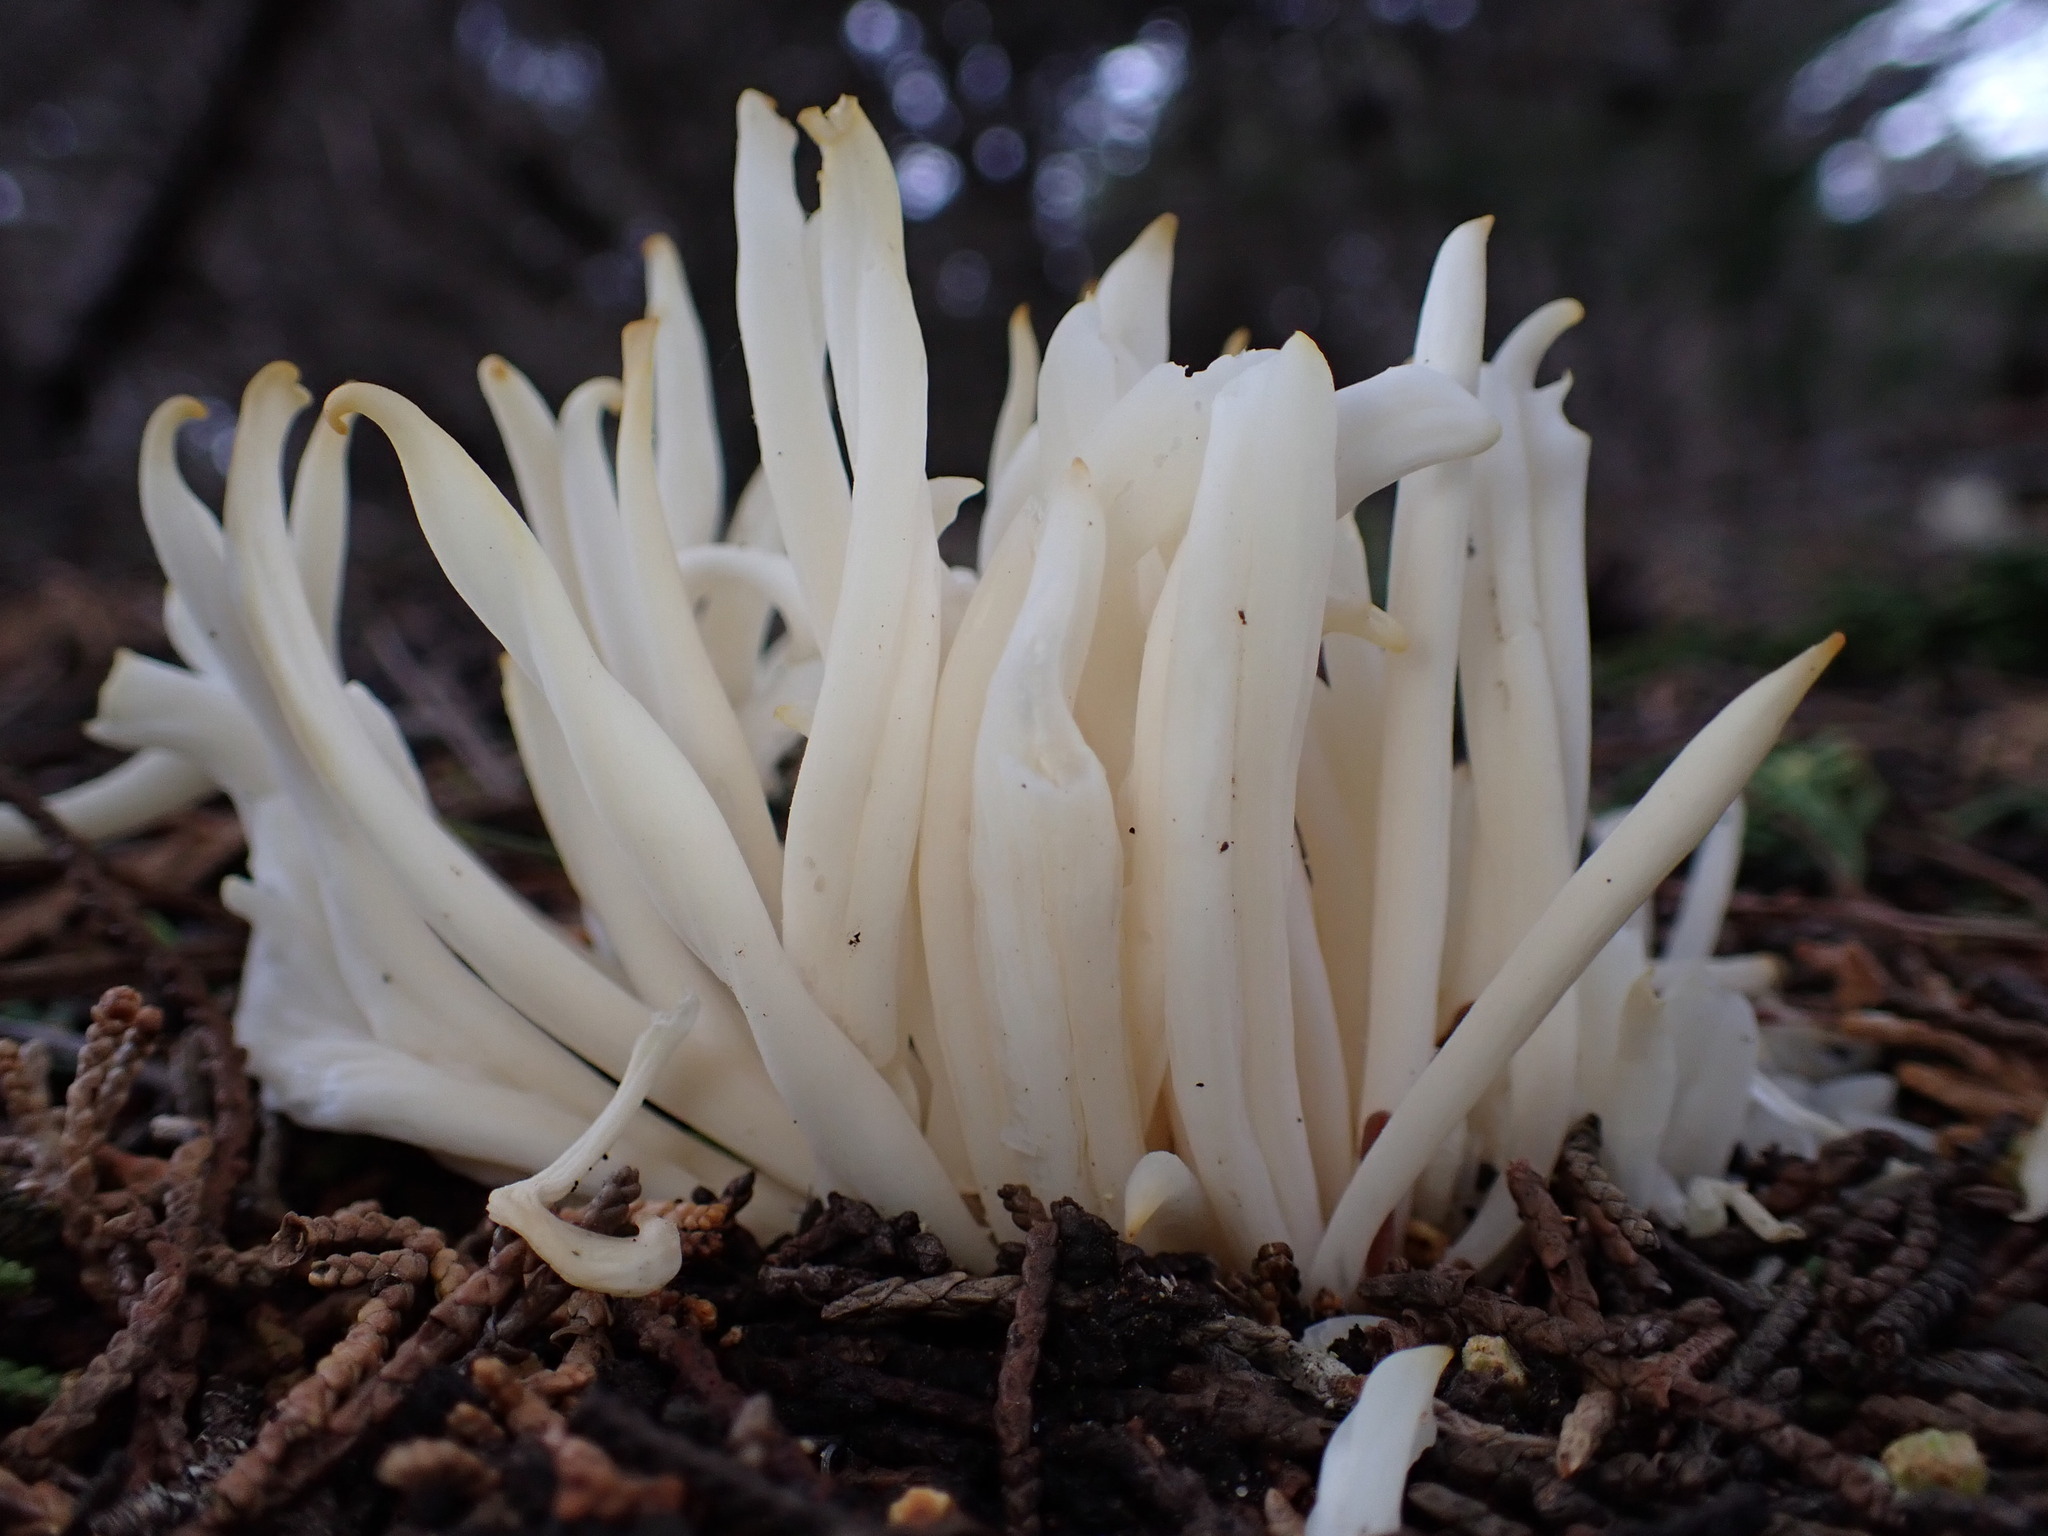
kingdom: Fungi
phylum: Basidiomycota
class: Agaricomycetes
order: Agaricales
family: Clavariaceae
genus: Clavaria
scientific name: Clavaria fragilis
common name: White spindles
